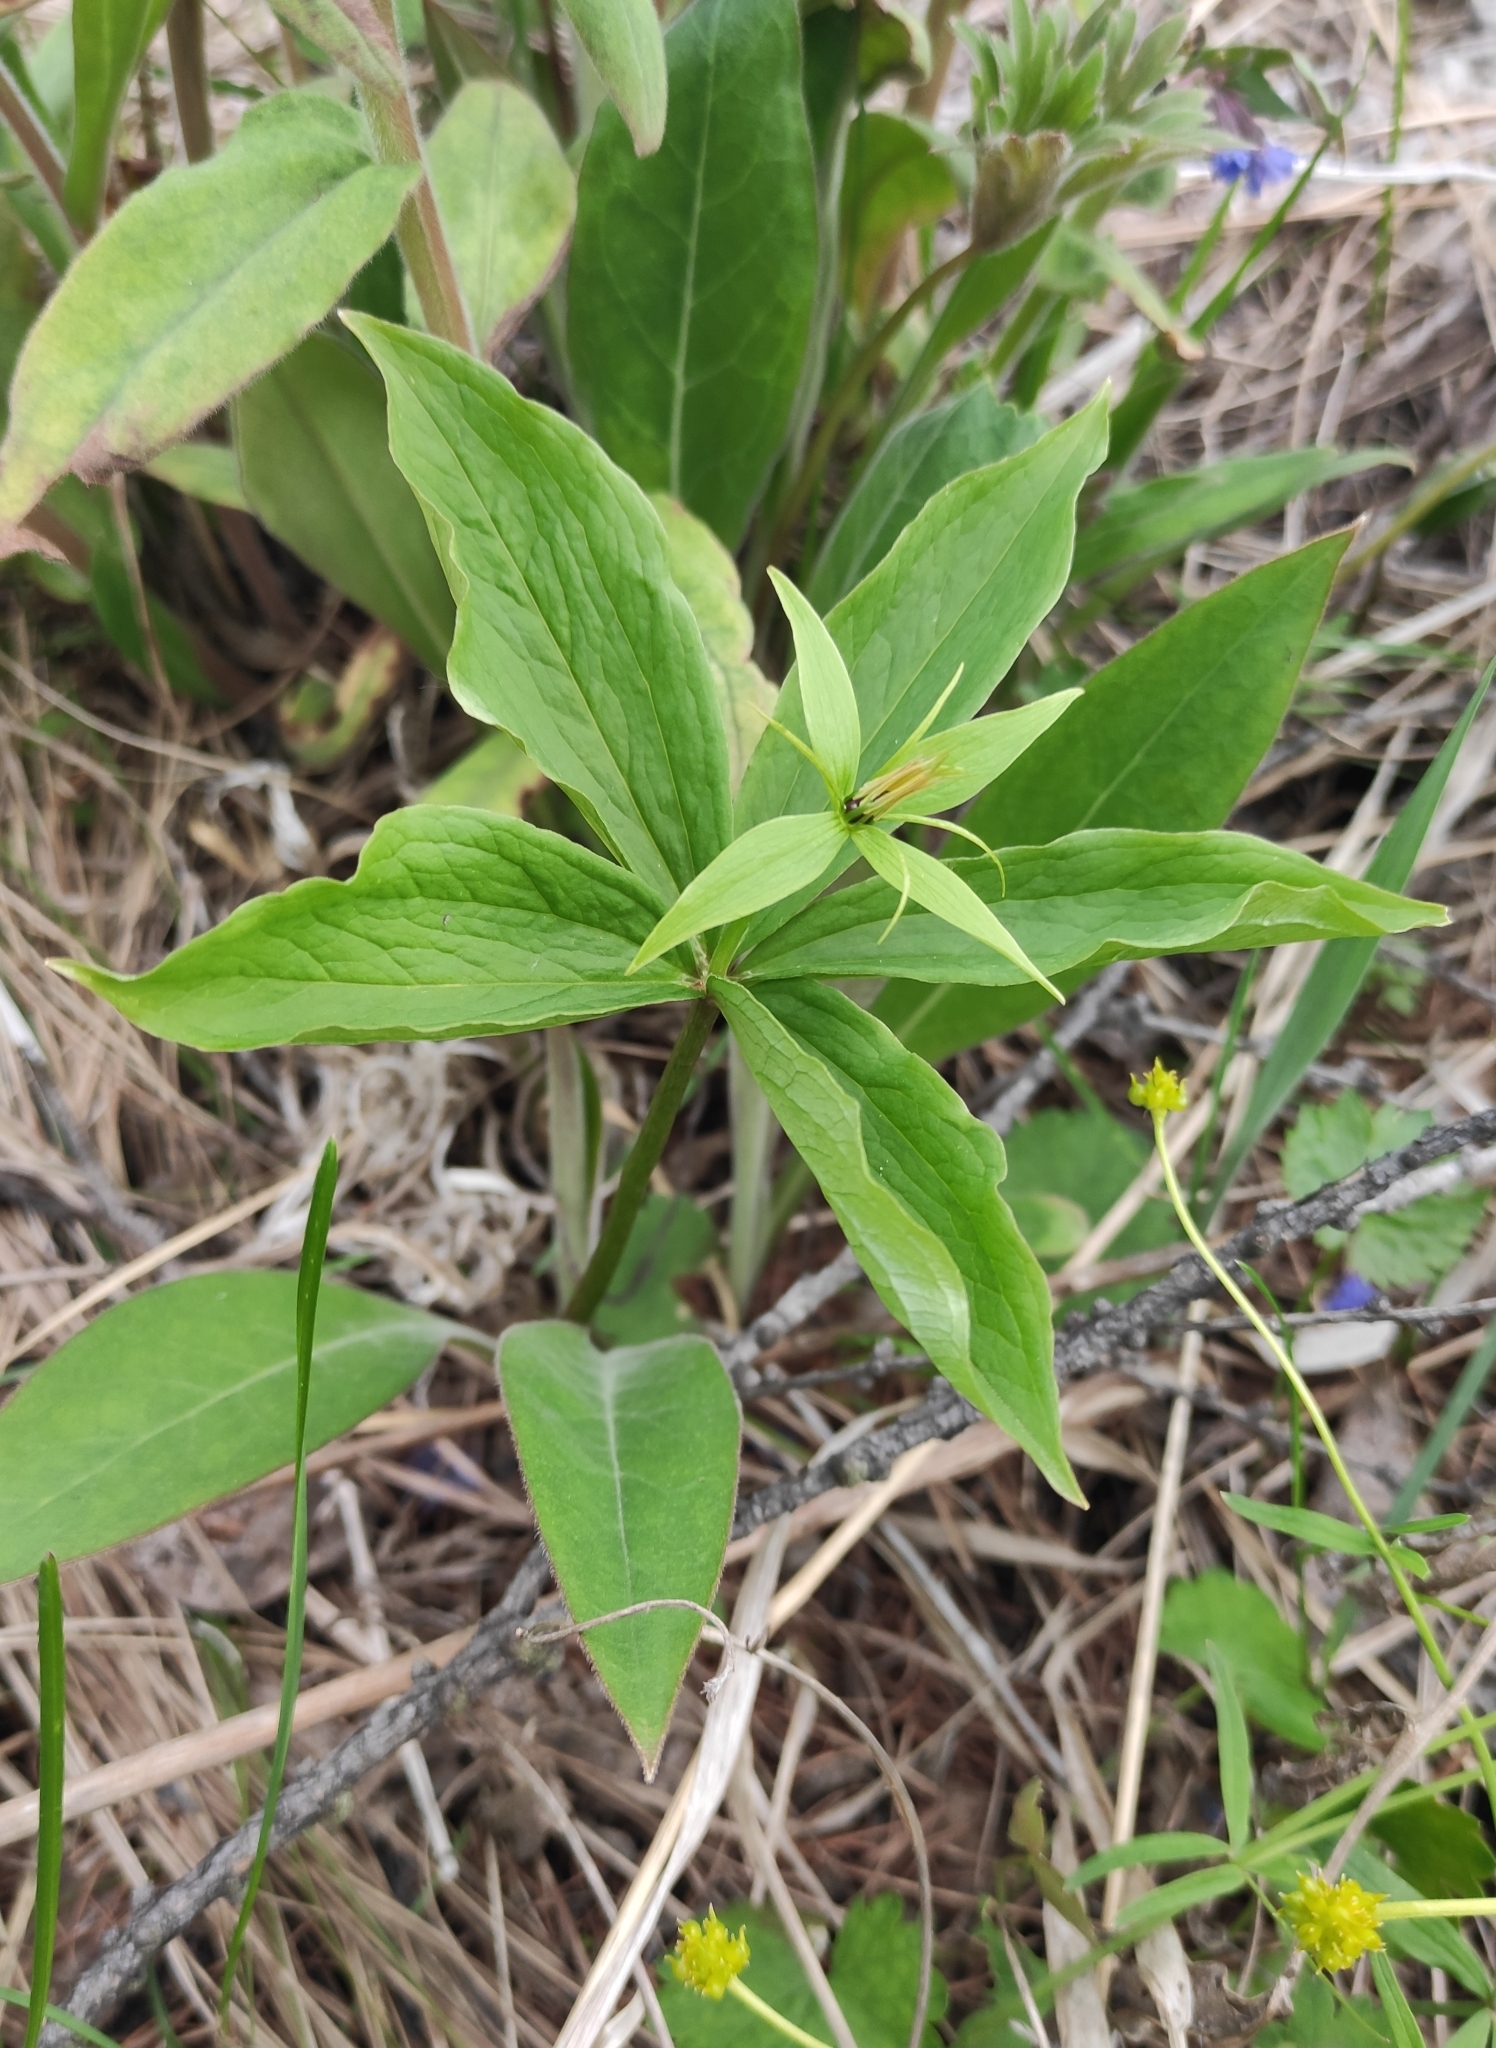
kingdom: Plantae
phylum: Tracheophyta
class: Liliopsida
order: Liliales
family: Melanthiaceae
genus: Paris
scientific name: Paris verticillata
